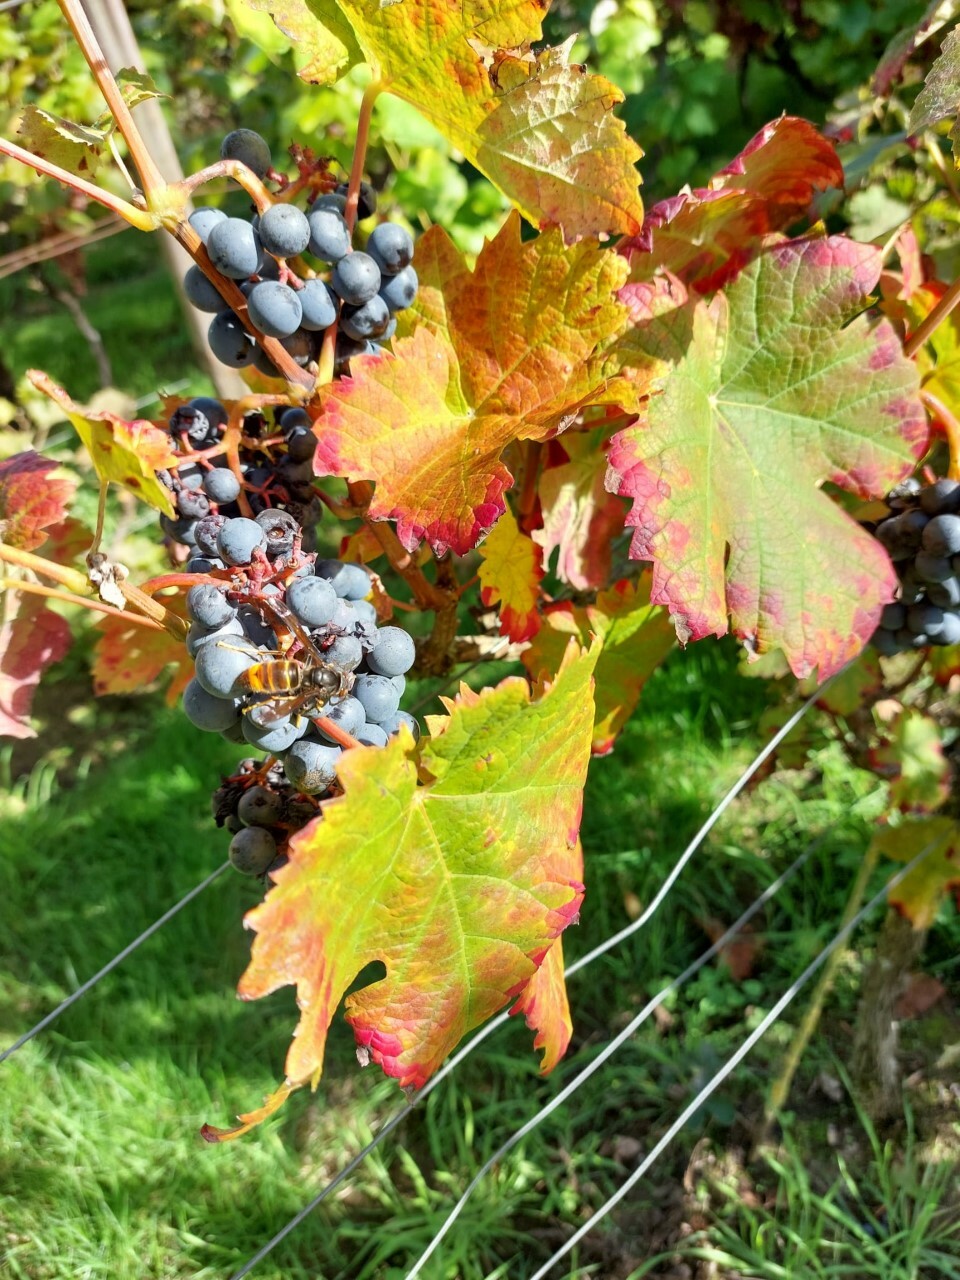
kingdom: Animalia
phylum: Arthropoda
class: Insecta
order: Hymenoptera
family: Vespidae
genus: Vespa
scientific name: Vespa crabro
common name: Hornet
